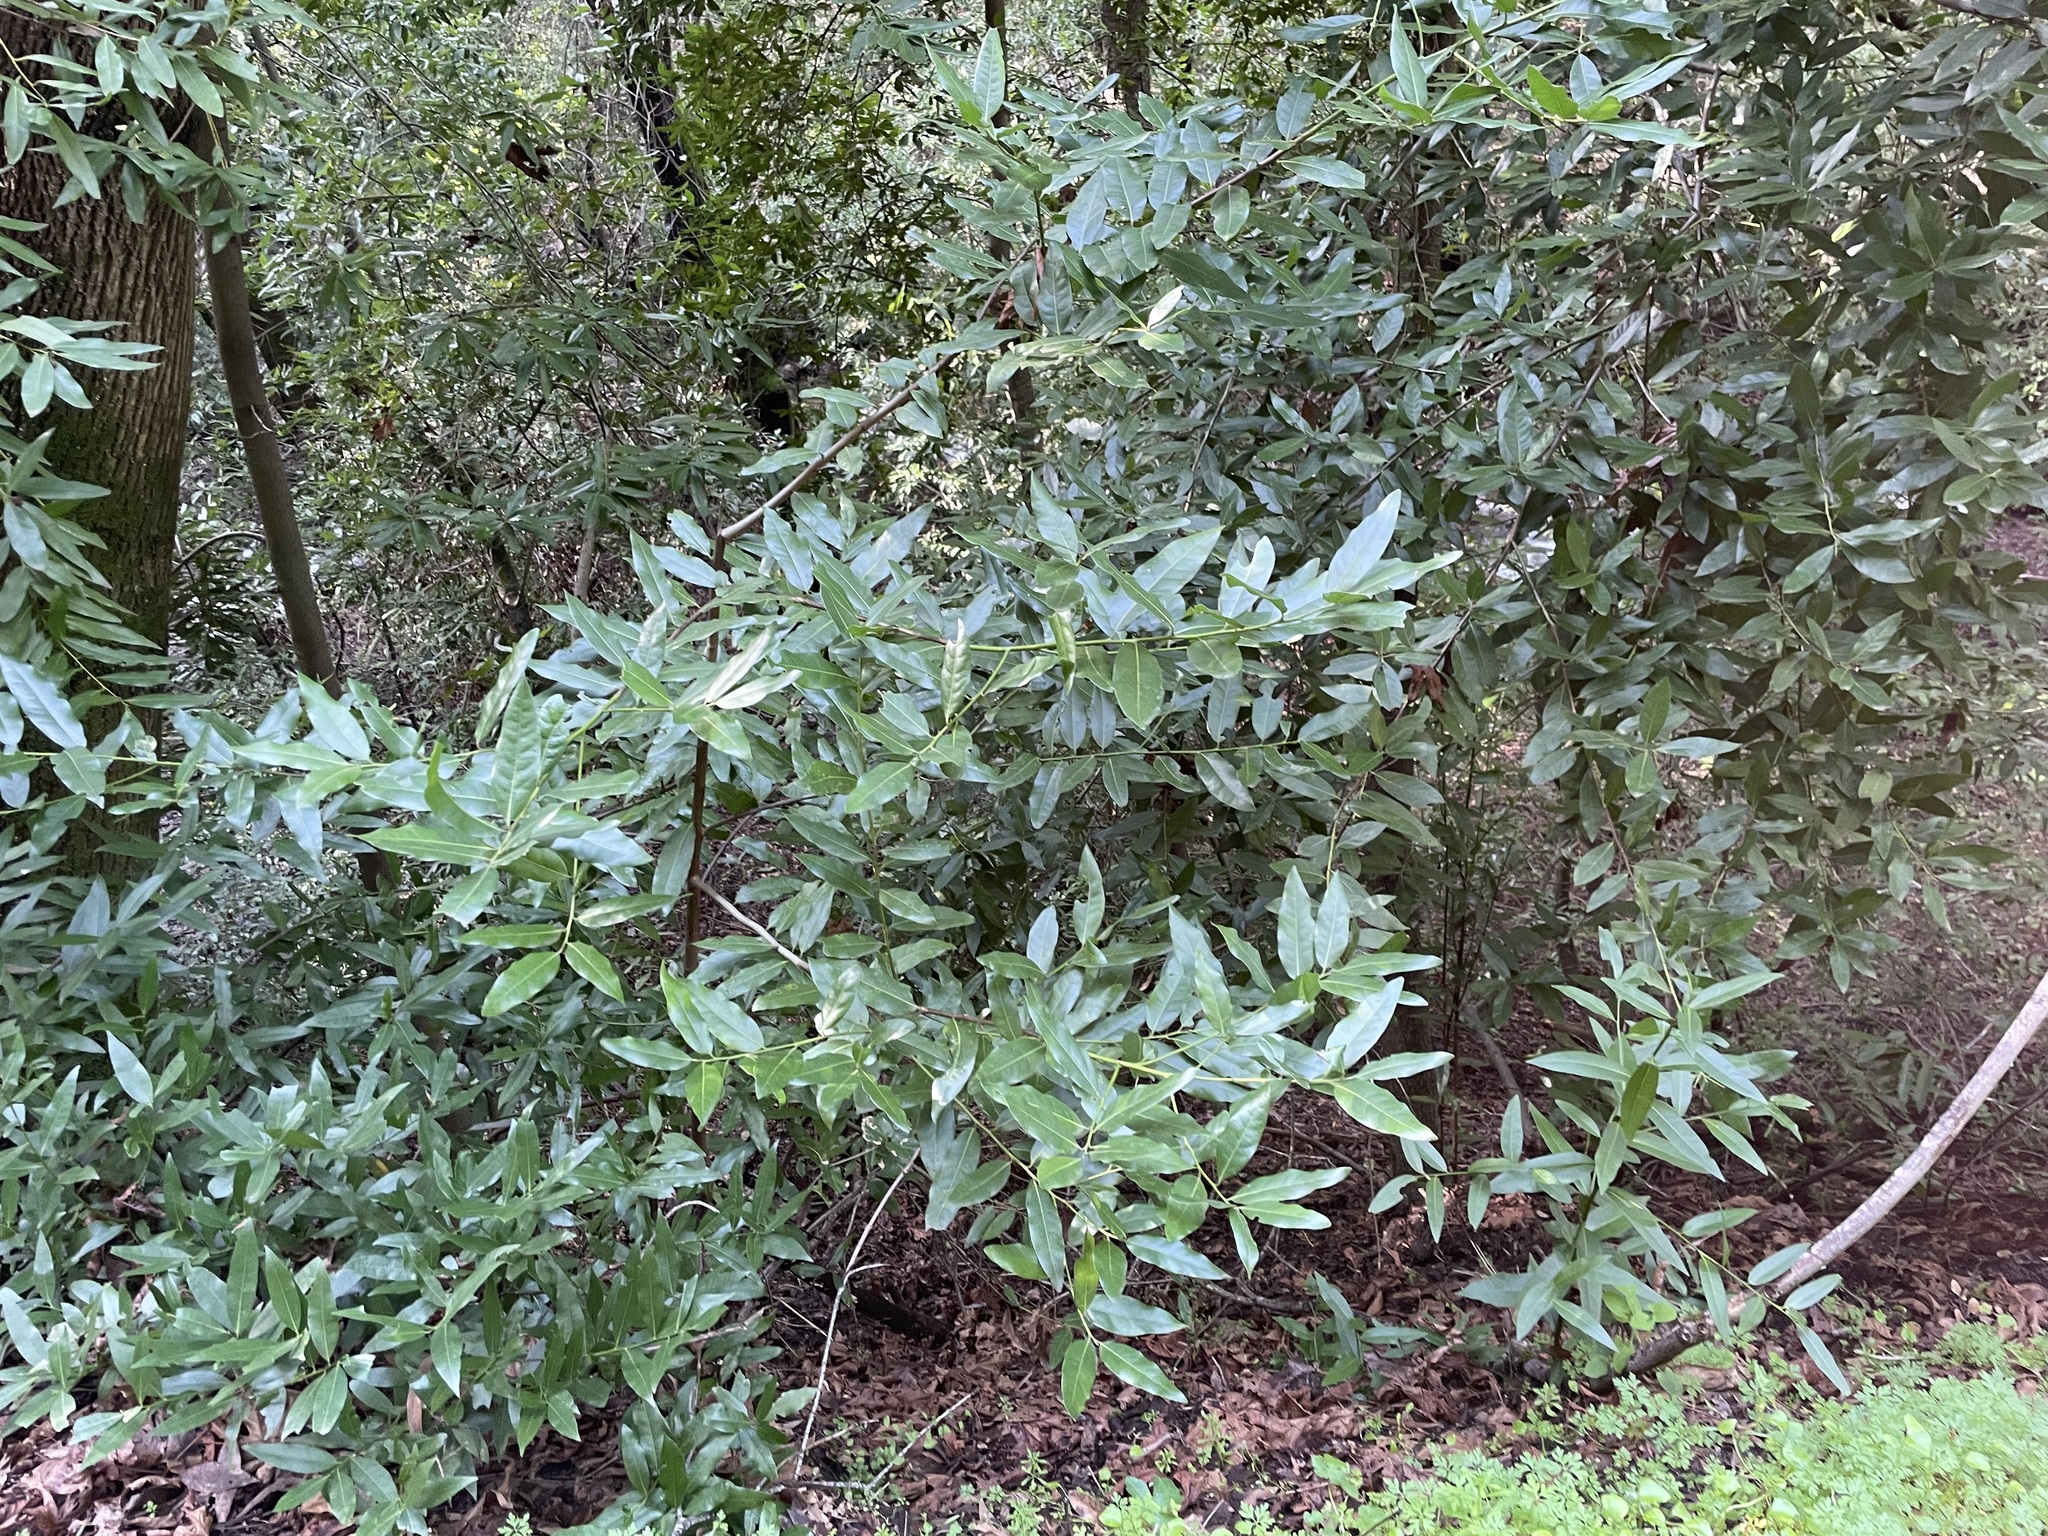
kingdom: Plantae
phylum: Tracheophyta
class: Magnoliopsida
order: Laurales
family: Lauraceae
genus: Umbellularia
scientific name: Umbellularia californica
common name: California bay
